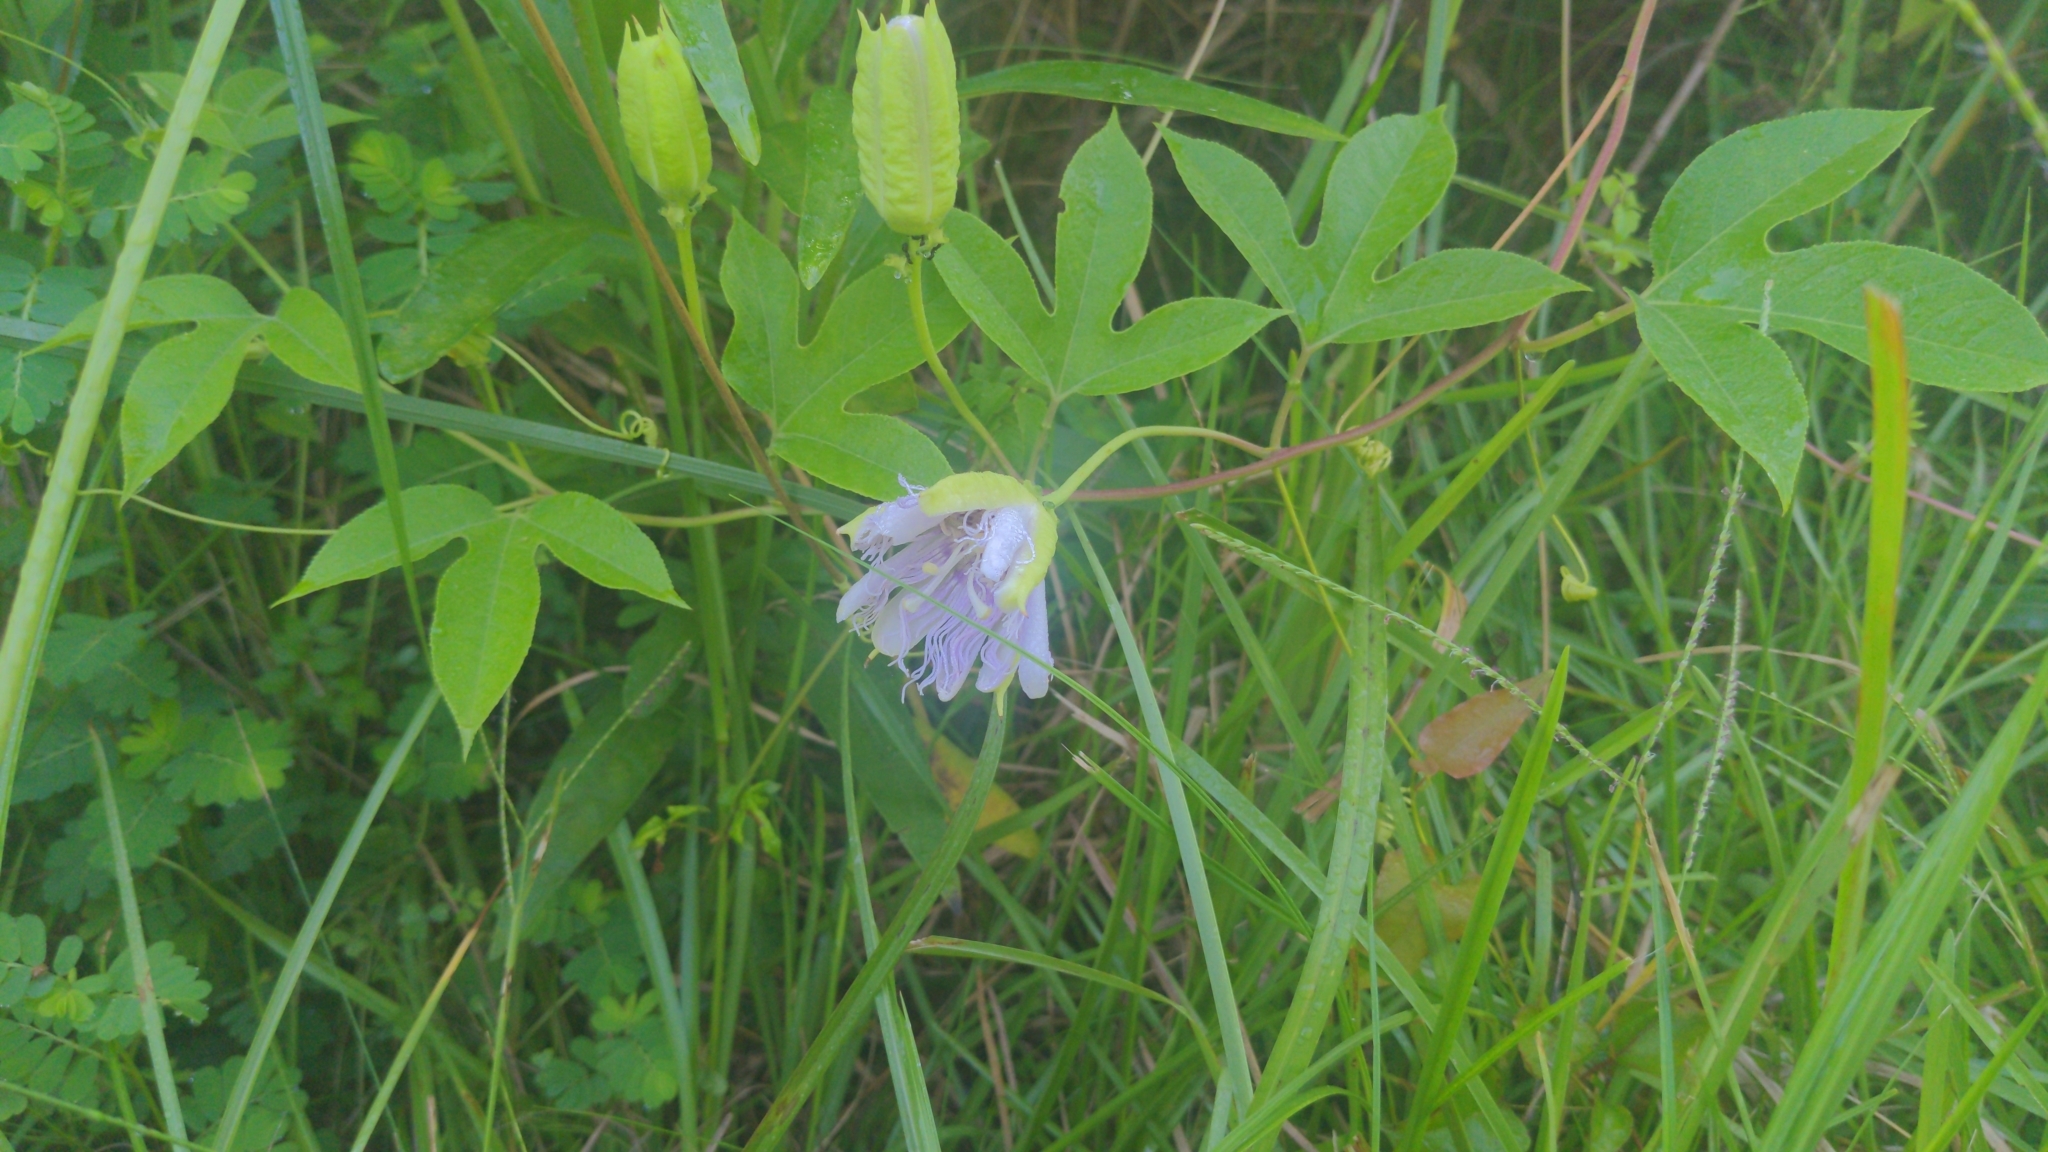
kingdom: Plantae
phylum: Tracheophyta
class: Magnoliopsida
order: Malpighiales
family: Passifloraceae
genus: Passiflora
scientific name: Passiflora incarnata
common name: Apricot-vine
